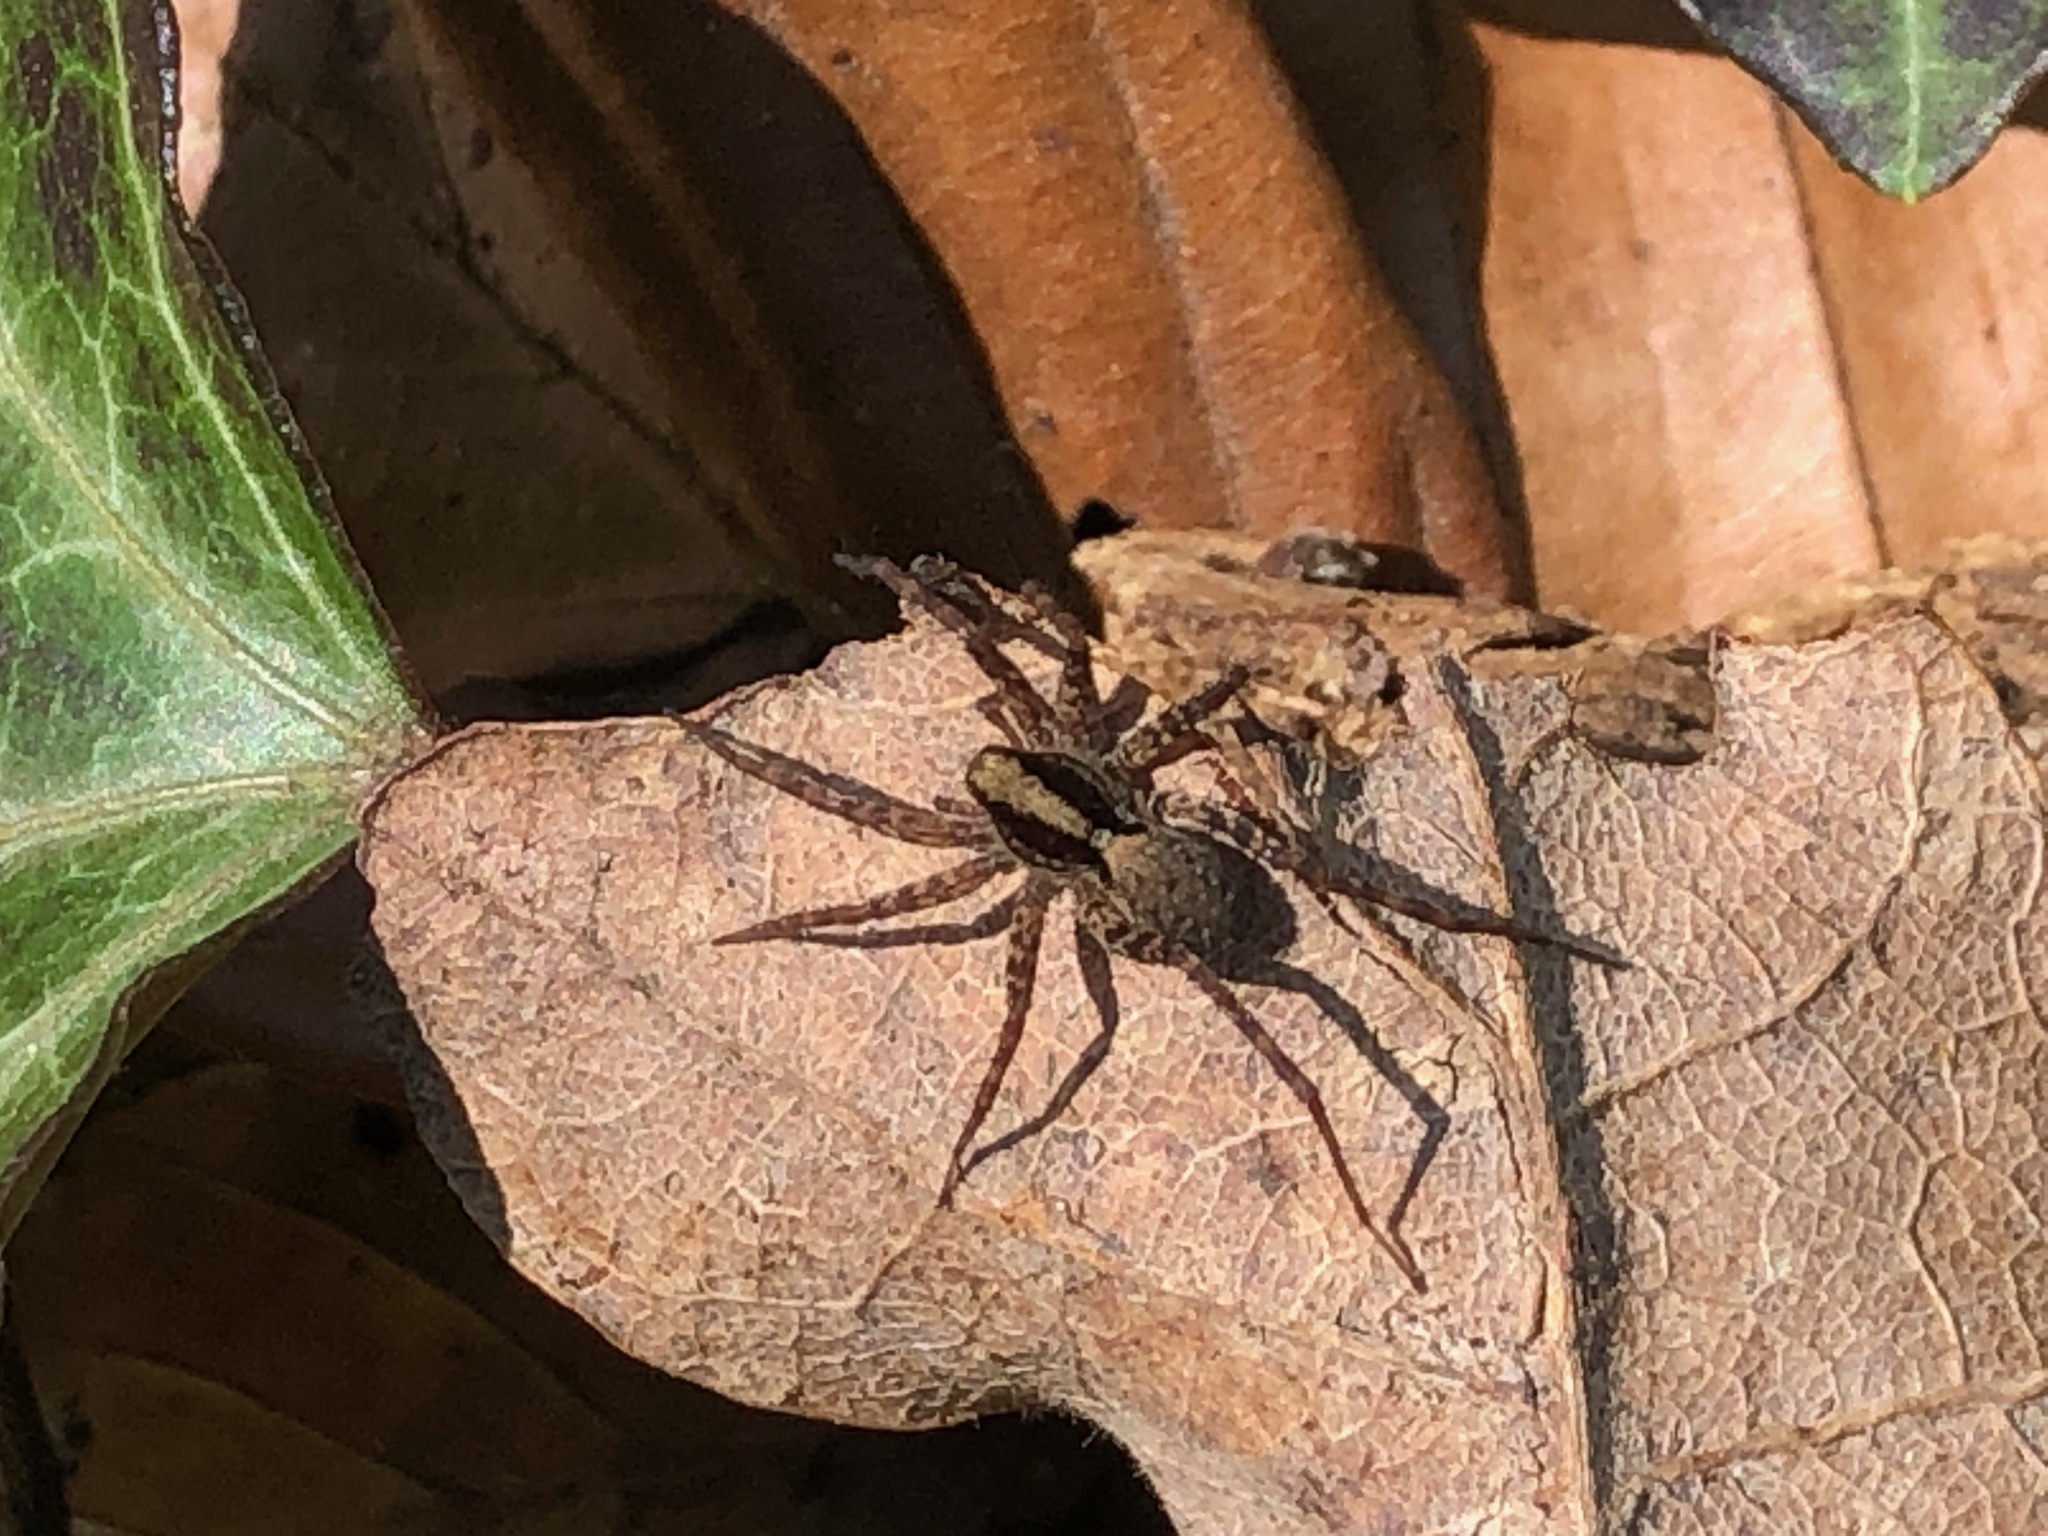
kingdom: Animalia
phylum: Arthropoda
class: Arachnida
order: Araneae
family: Lycosidae
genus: Pardosa
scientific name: Pardosa
